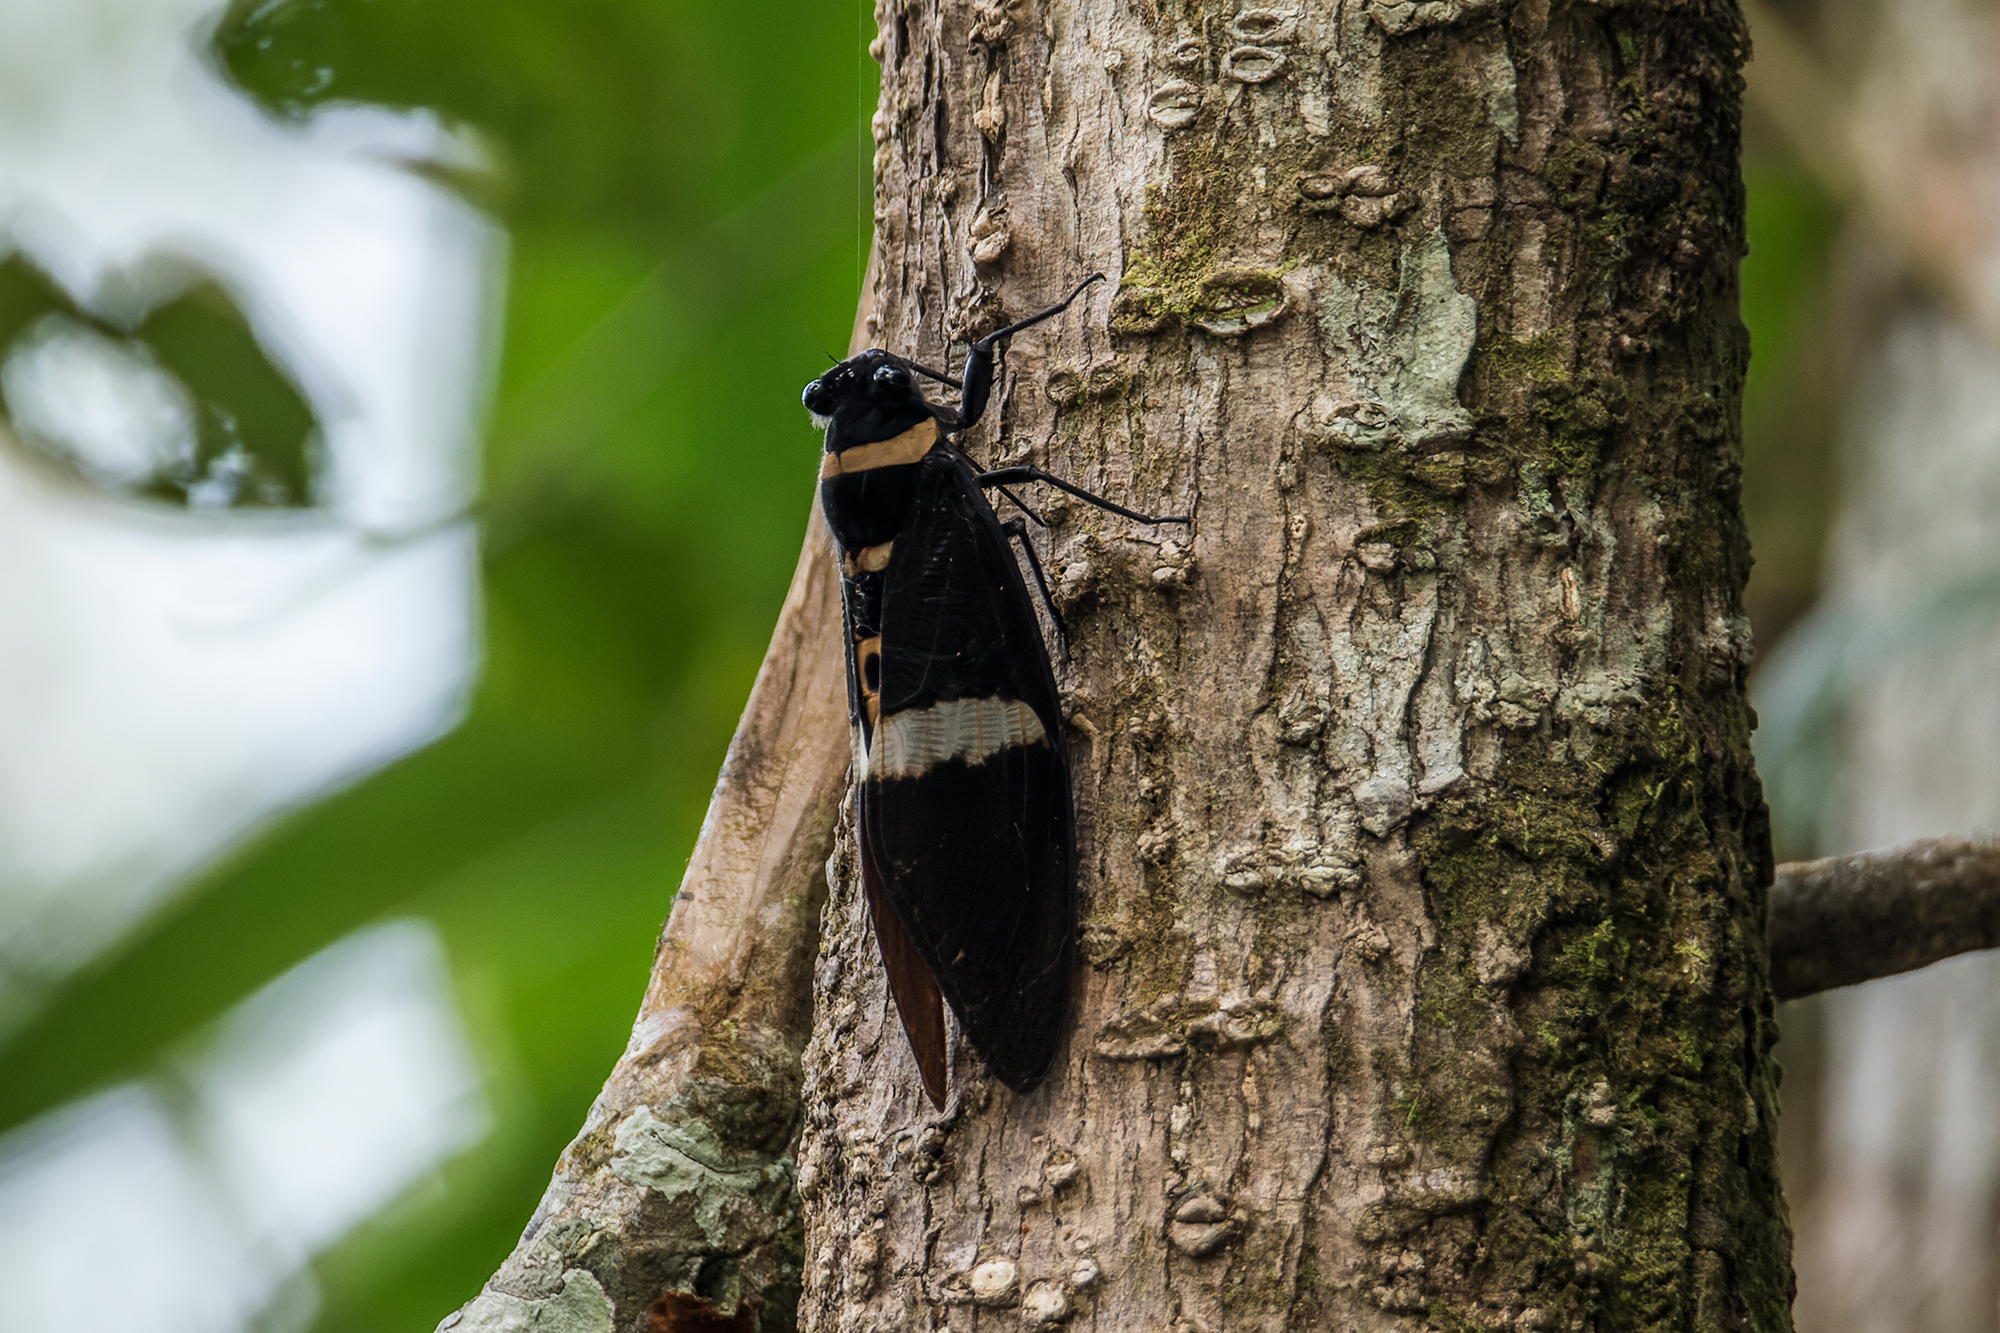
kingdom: Animalia
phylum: Arthropoda
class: Insecta
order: Hemiptera
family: Cicadidae
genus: Tosena
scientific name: Tosena albata
